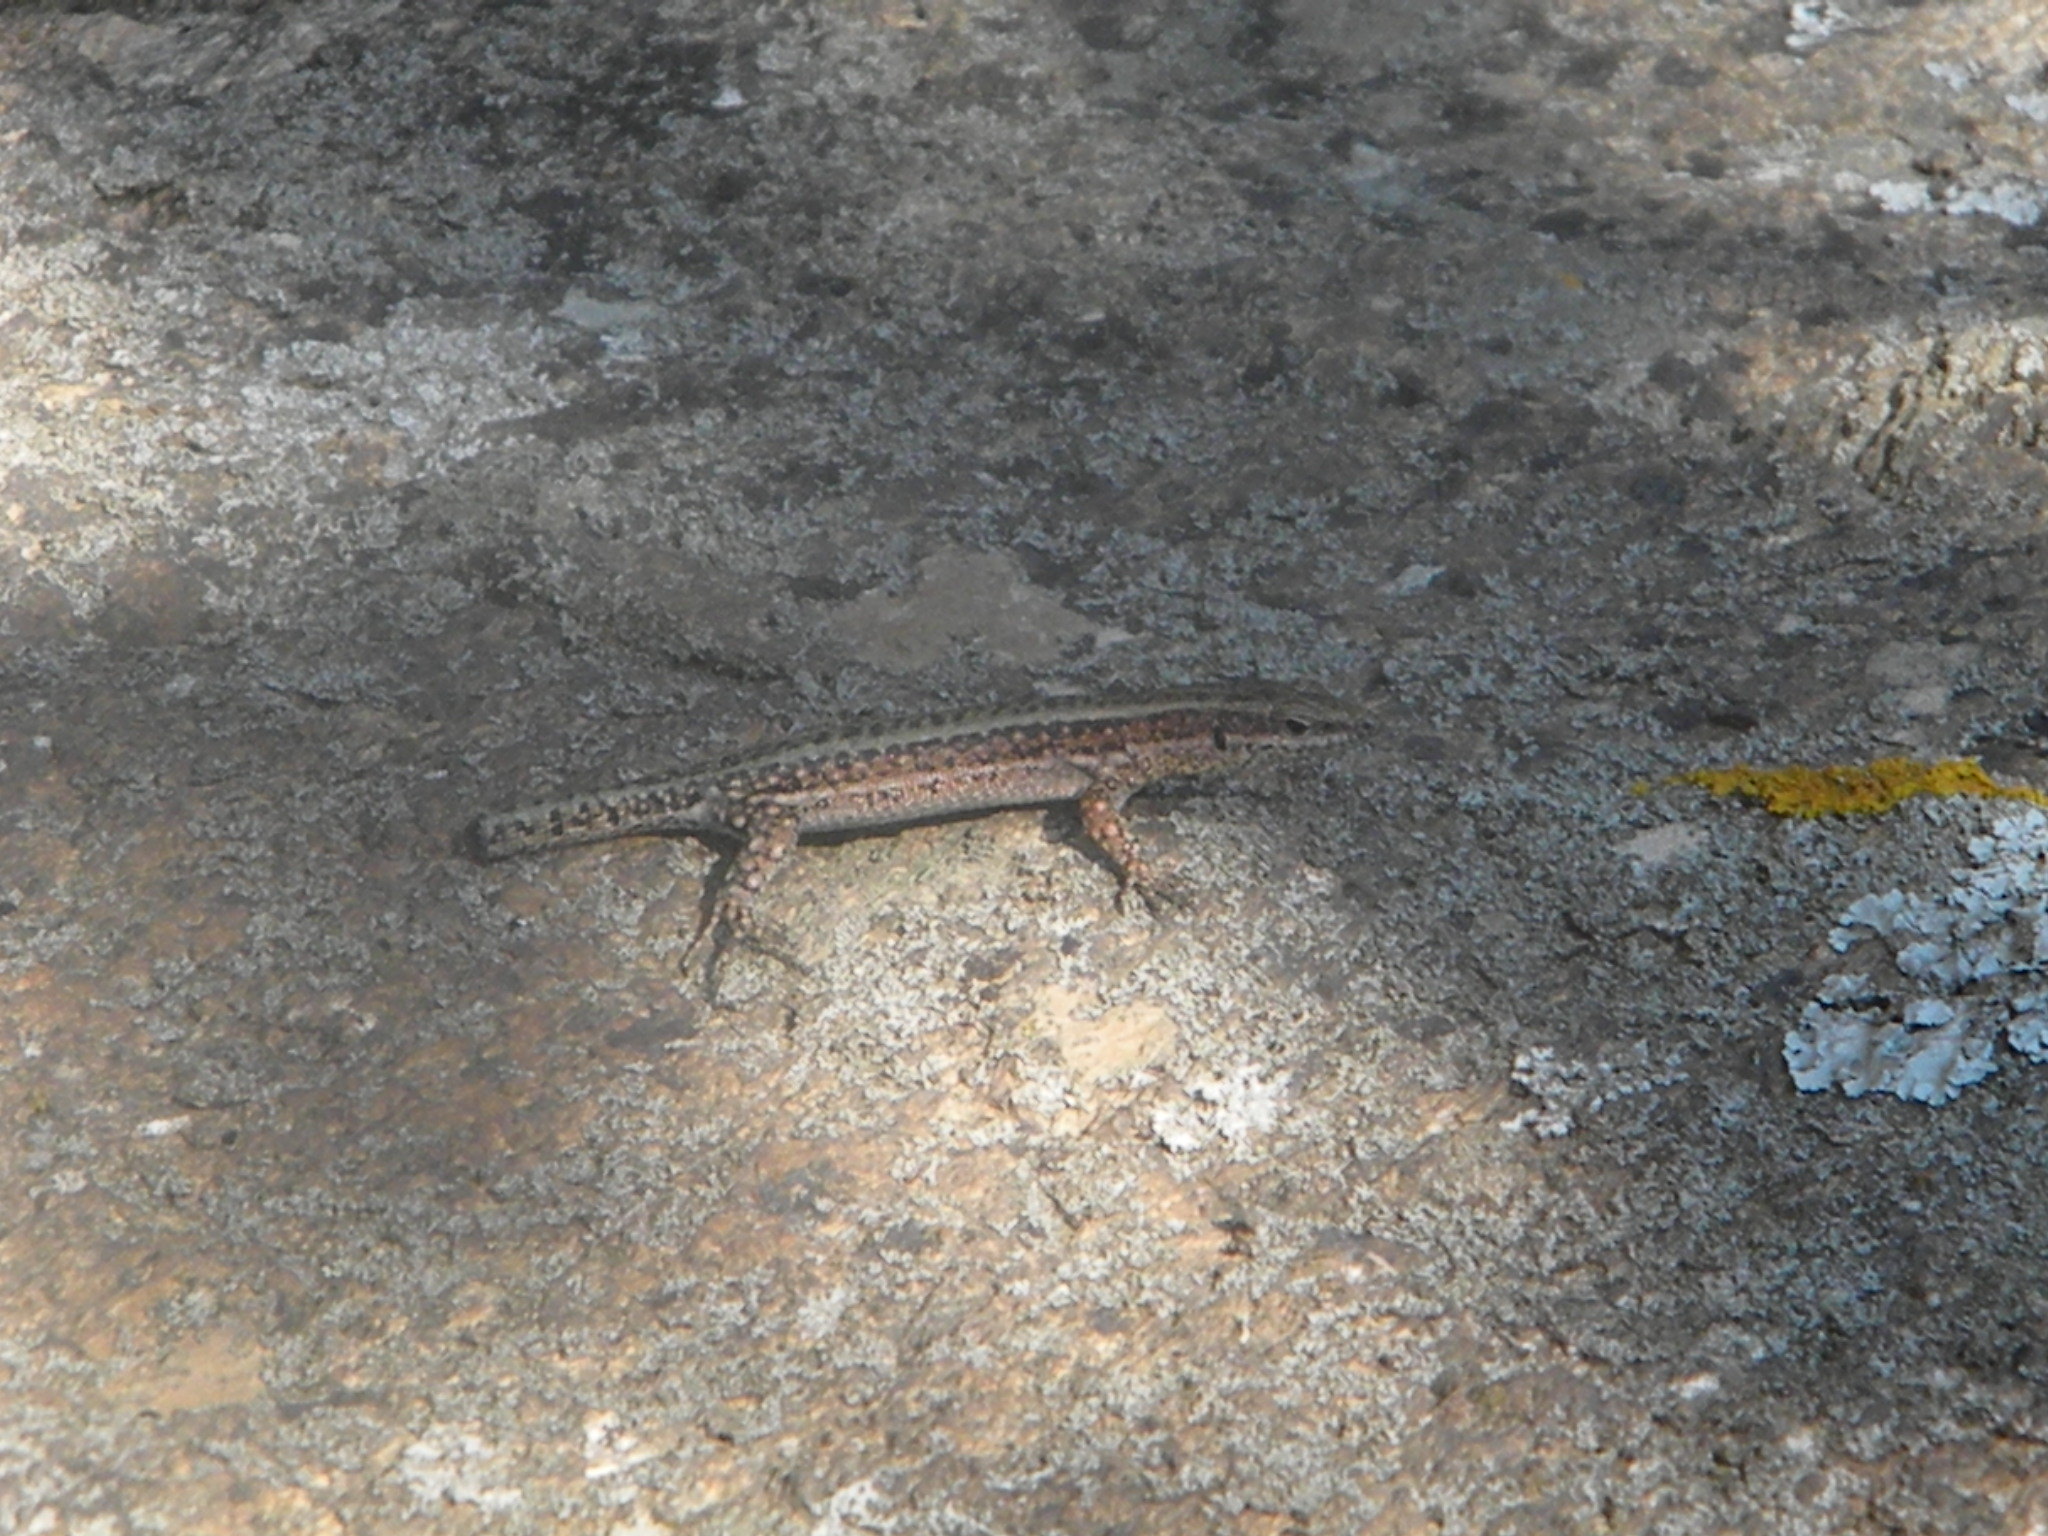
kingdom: Animalia
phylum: Chordata
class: Squamata
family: Lacertidae
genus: Anatololacerta
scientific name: Anatololacerta anatolica
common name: Anatolian rock lizard
